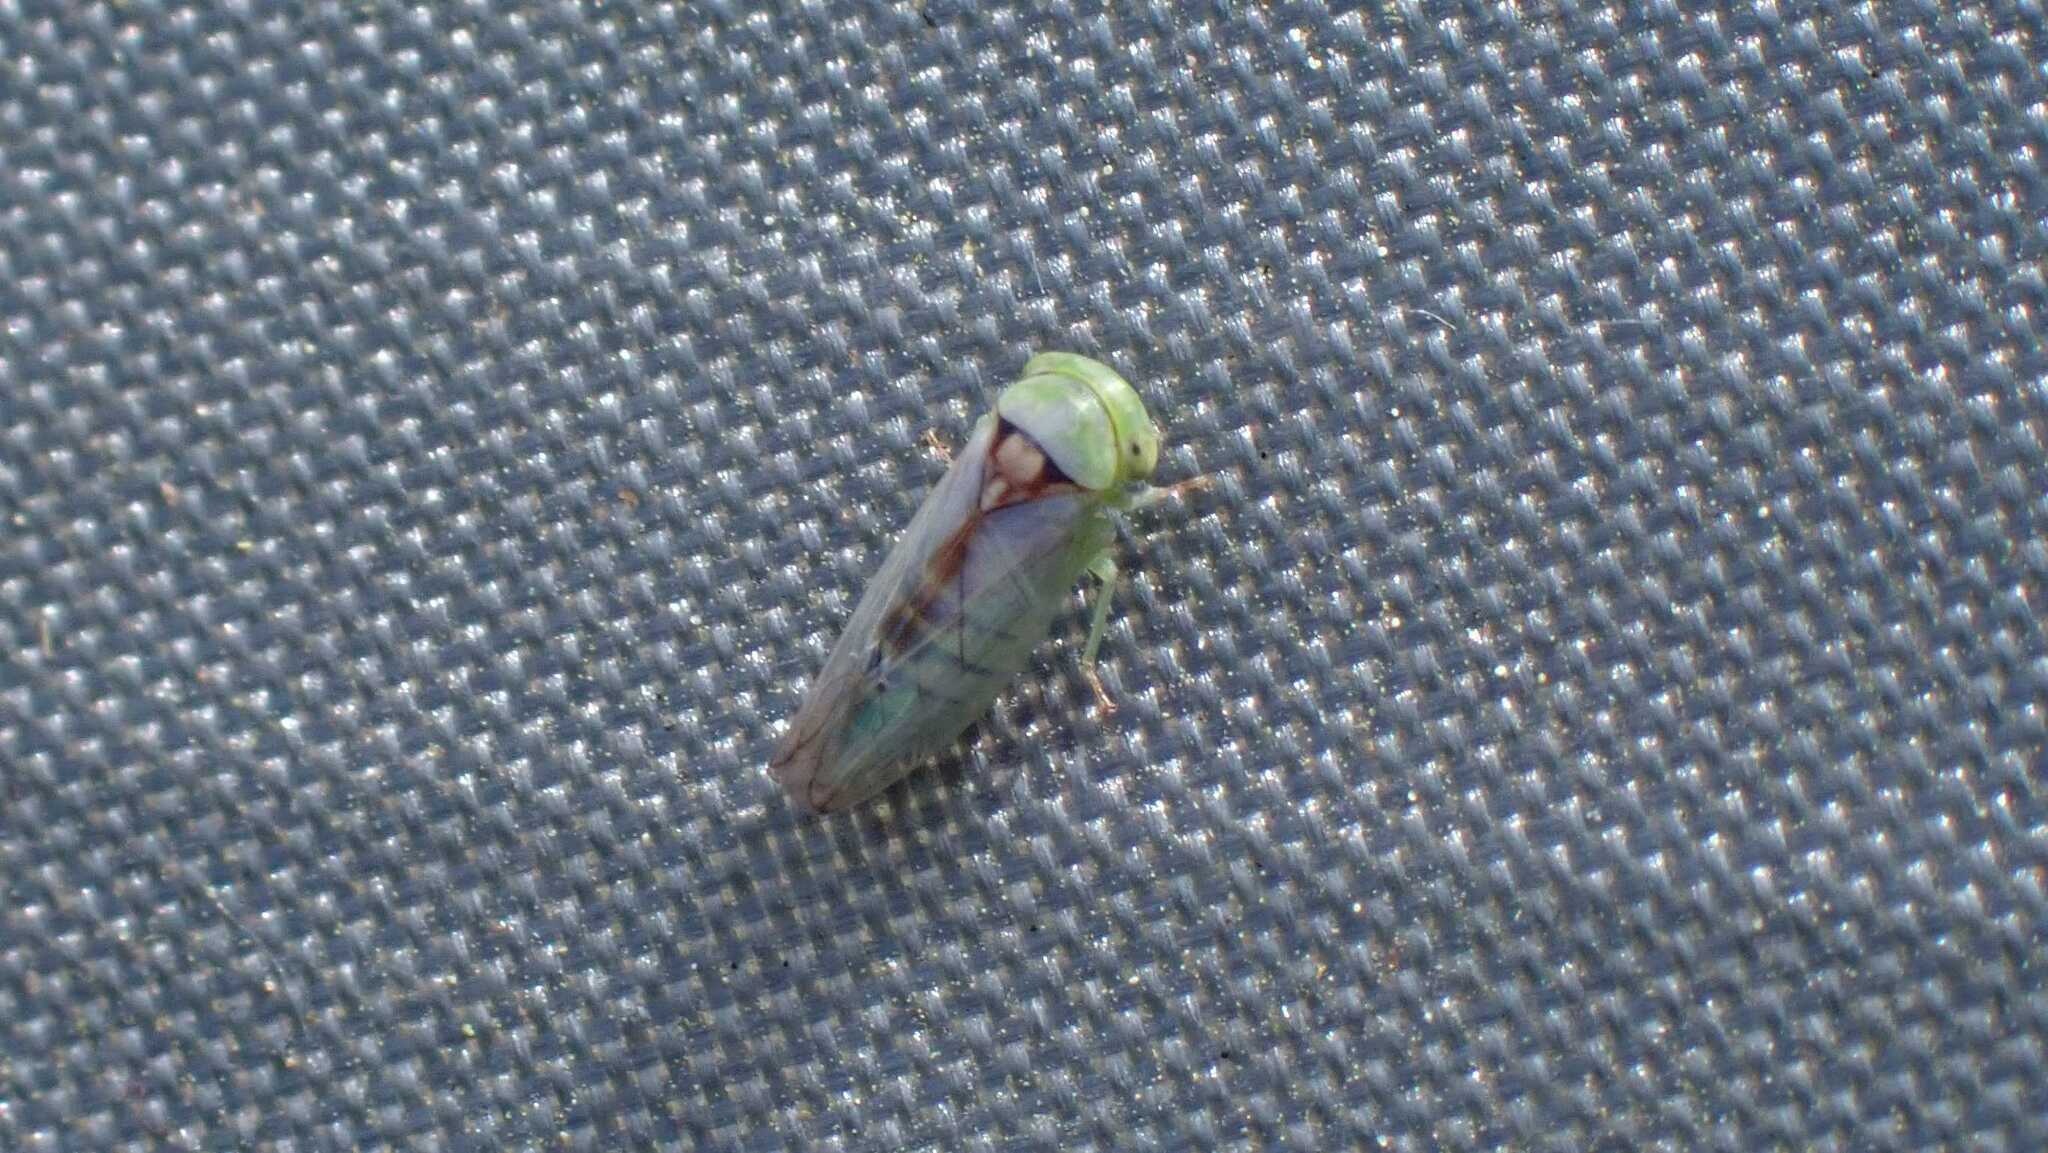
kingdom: Animalia
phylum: Arthropoda
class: Insecta
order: Hemiptera
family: Cicadellidae
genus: Viridicerus
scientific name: Viridicerus ustulatus
